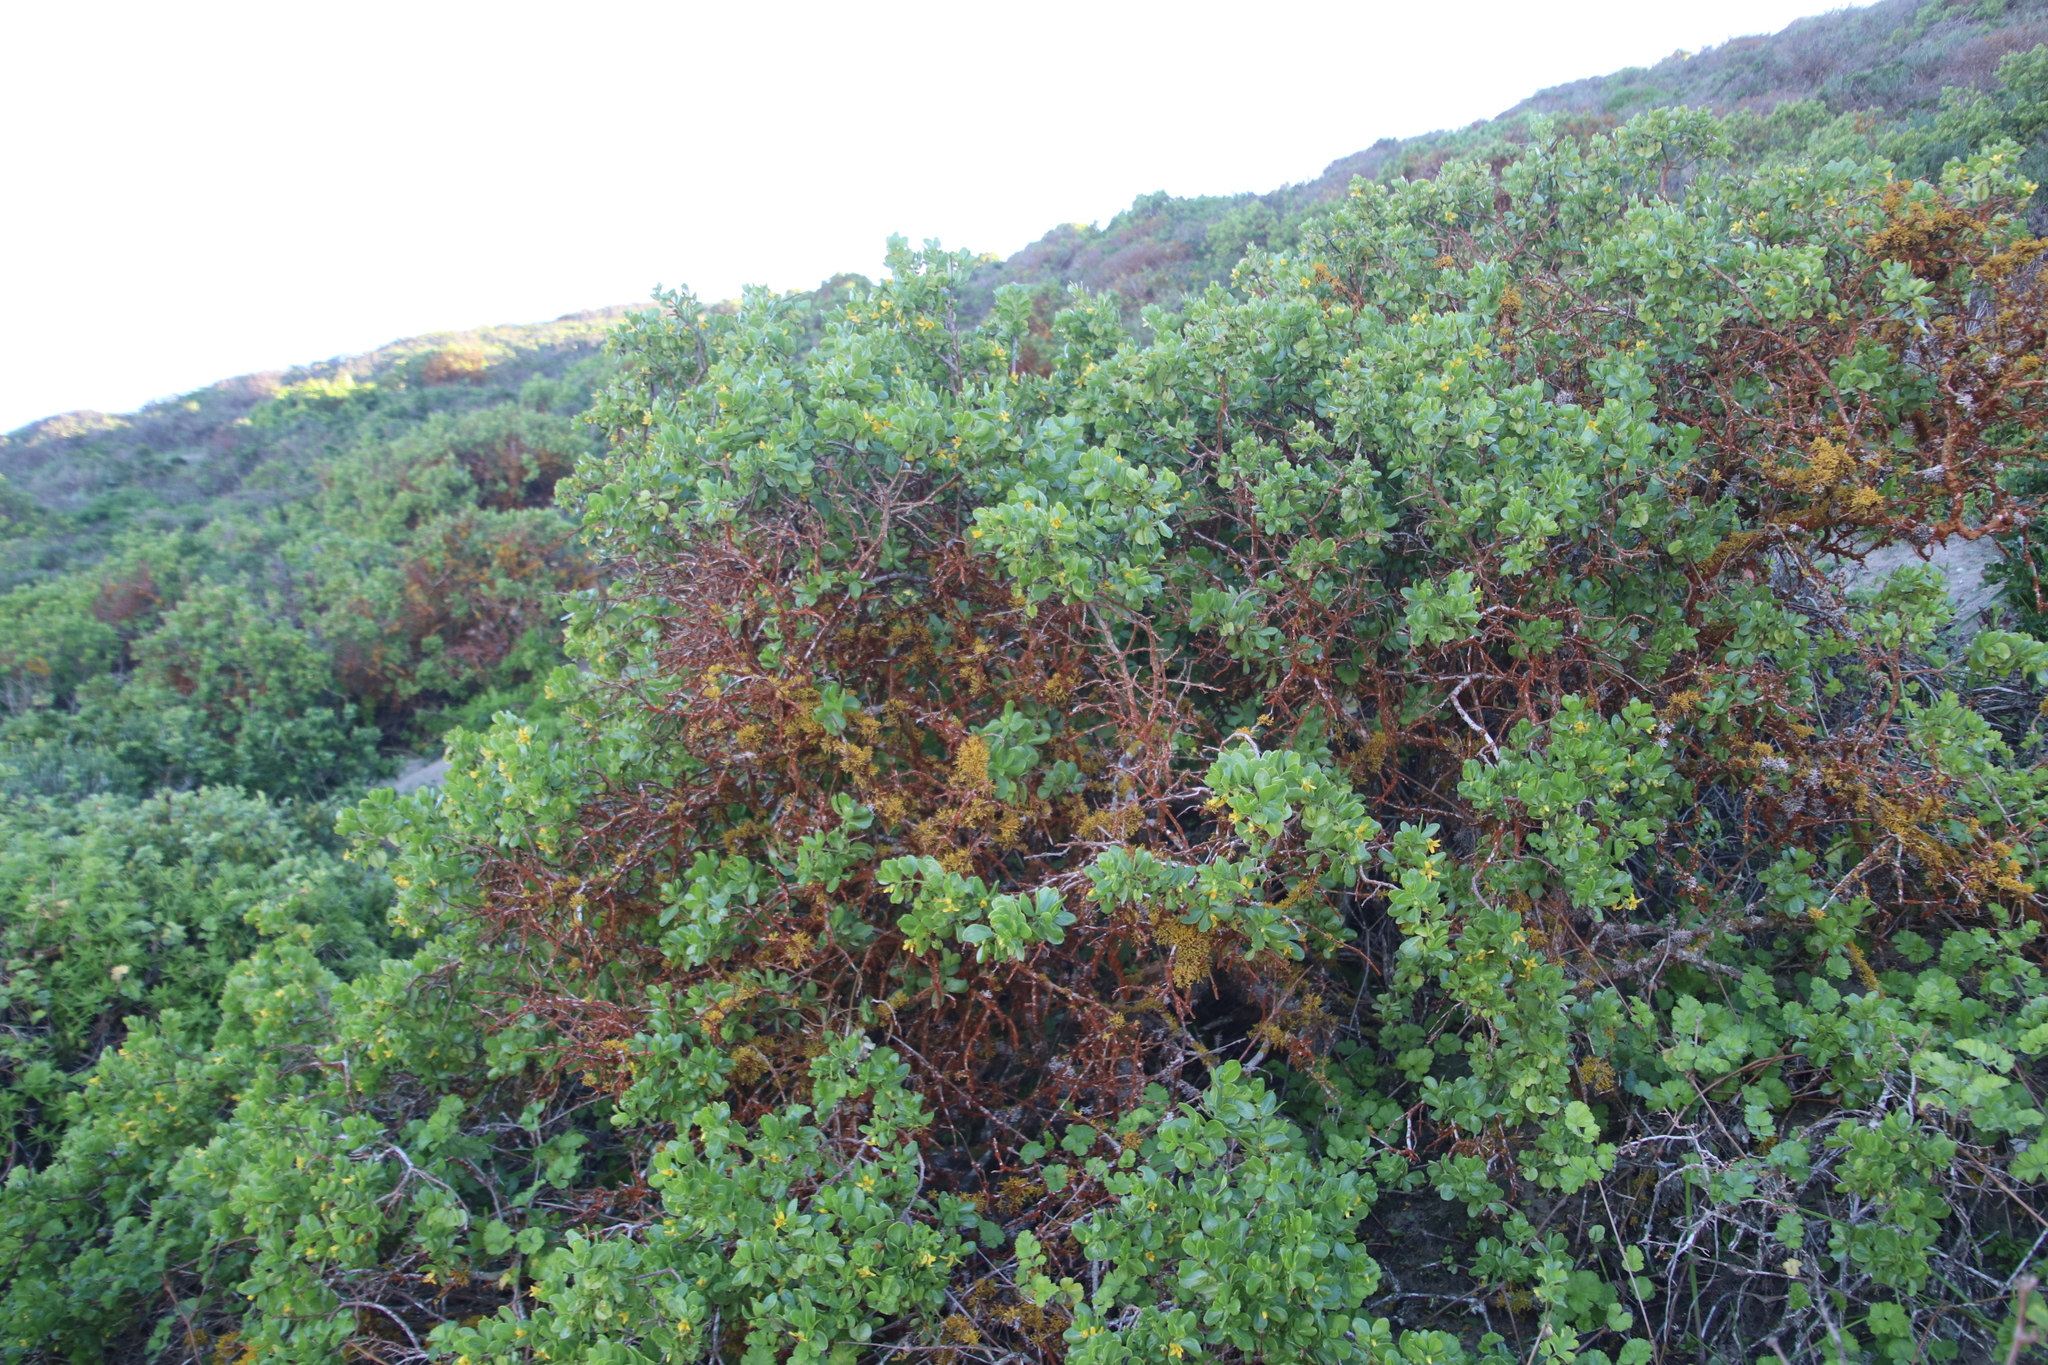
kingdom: Fungi
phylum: Ascomycota
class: Lecanoromycetes
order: Teloschistales
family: Teloschistaceae
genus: Dufourea
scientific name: Dufourea flammea
